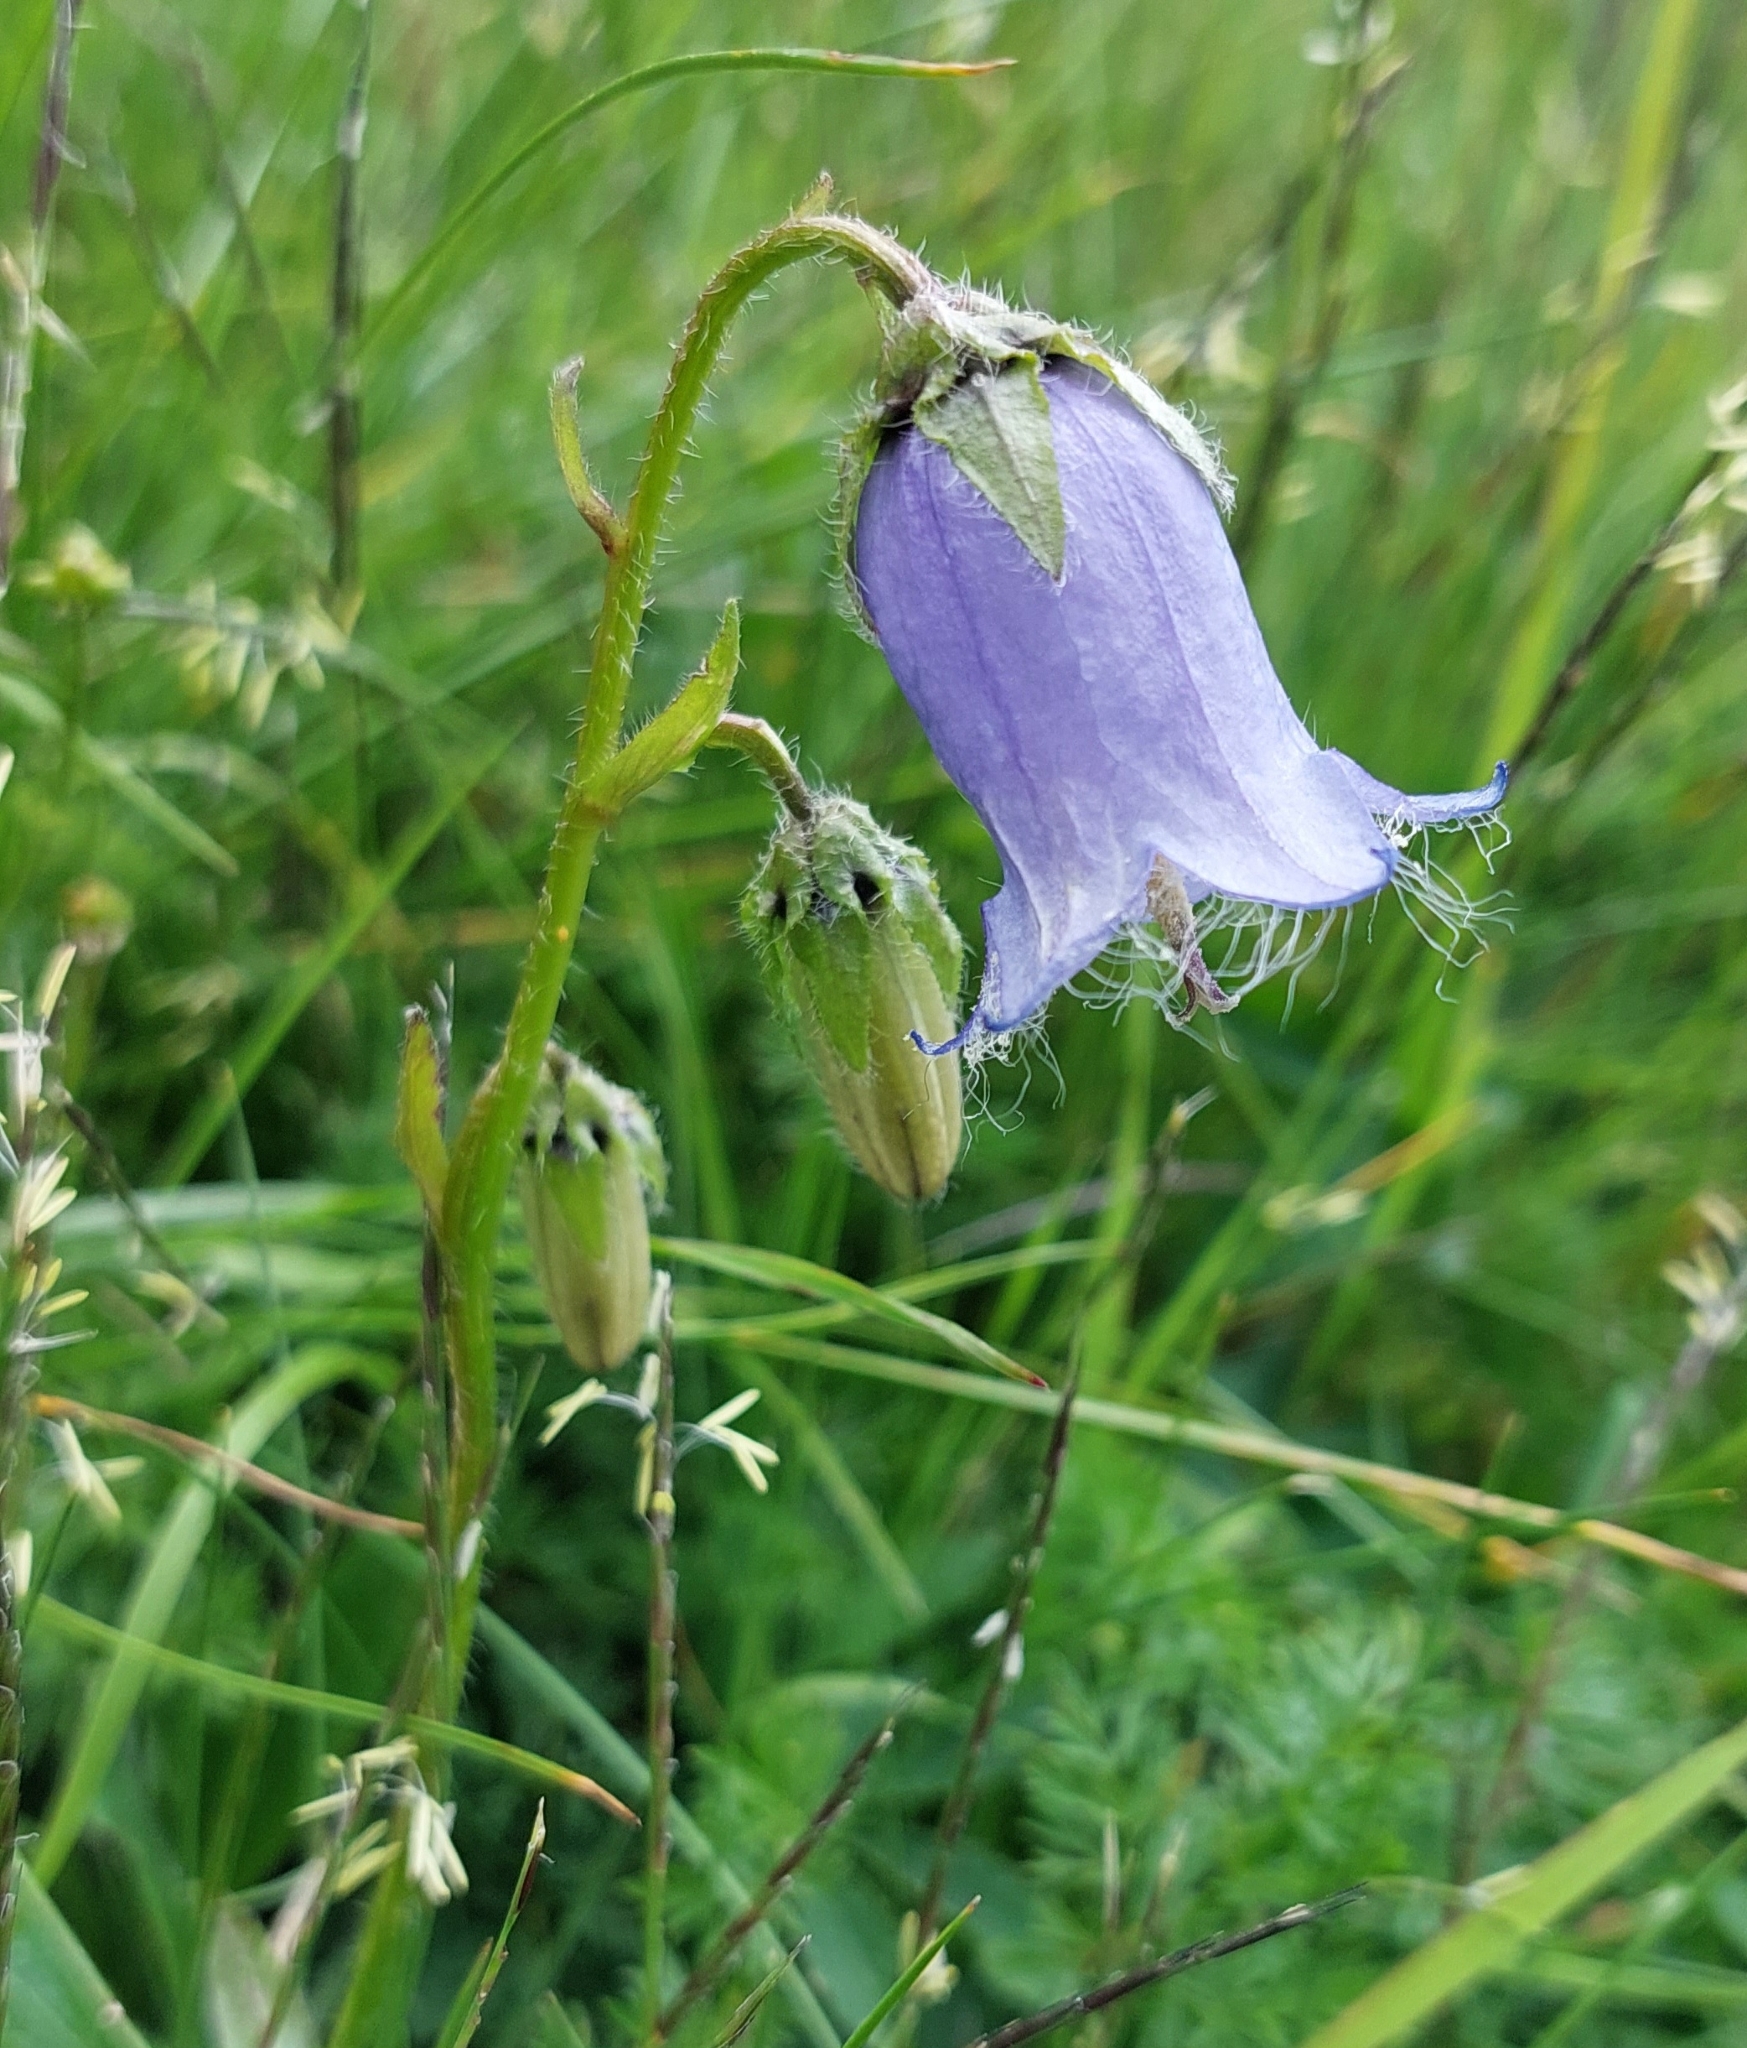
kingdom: Plantae
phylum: Tracheophyta
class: Magnoliopsida
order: Asterales
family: Campanulaceae
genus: Campanula
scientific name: Campanula barbata
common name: Bearded bellflower
